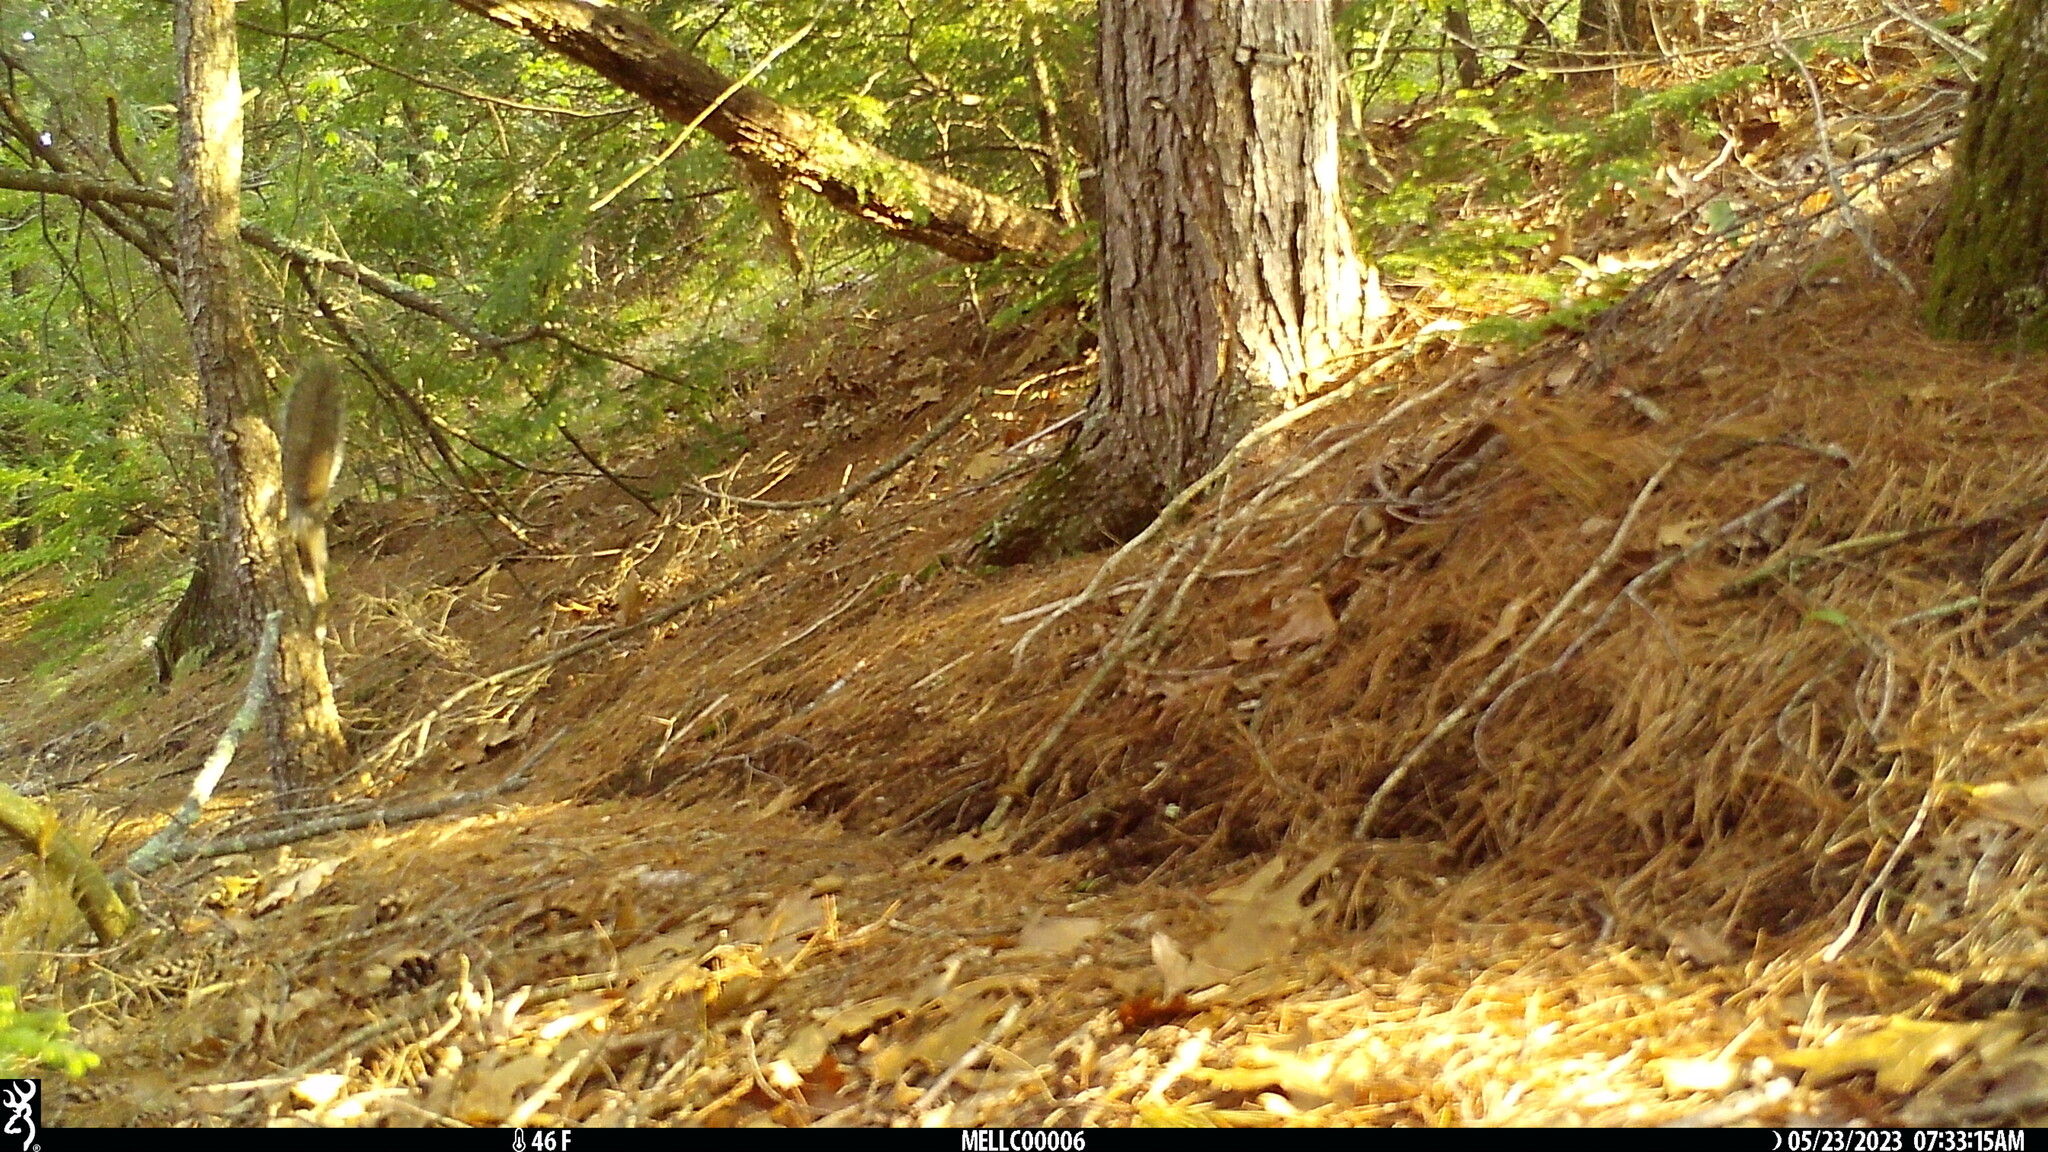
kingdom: Animalia
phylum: Chordata
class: Mammalia
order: Rodentia
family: Sciuridae
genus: Sciurus
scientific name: Sciurus carolinensis
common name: Eastern gray squirrel
